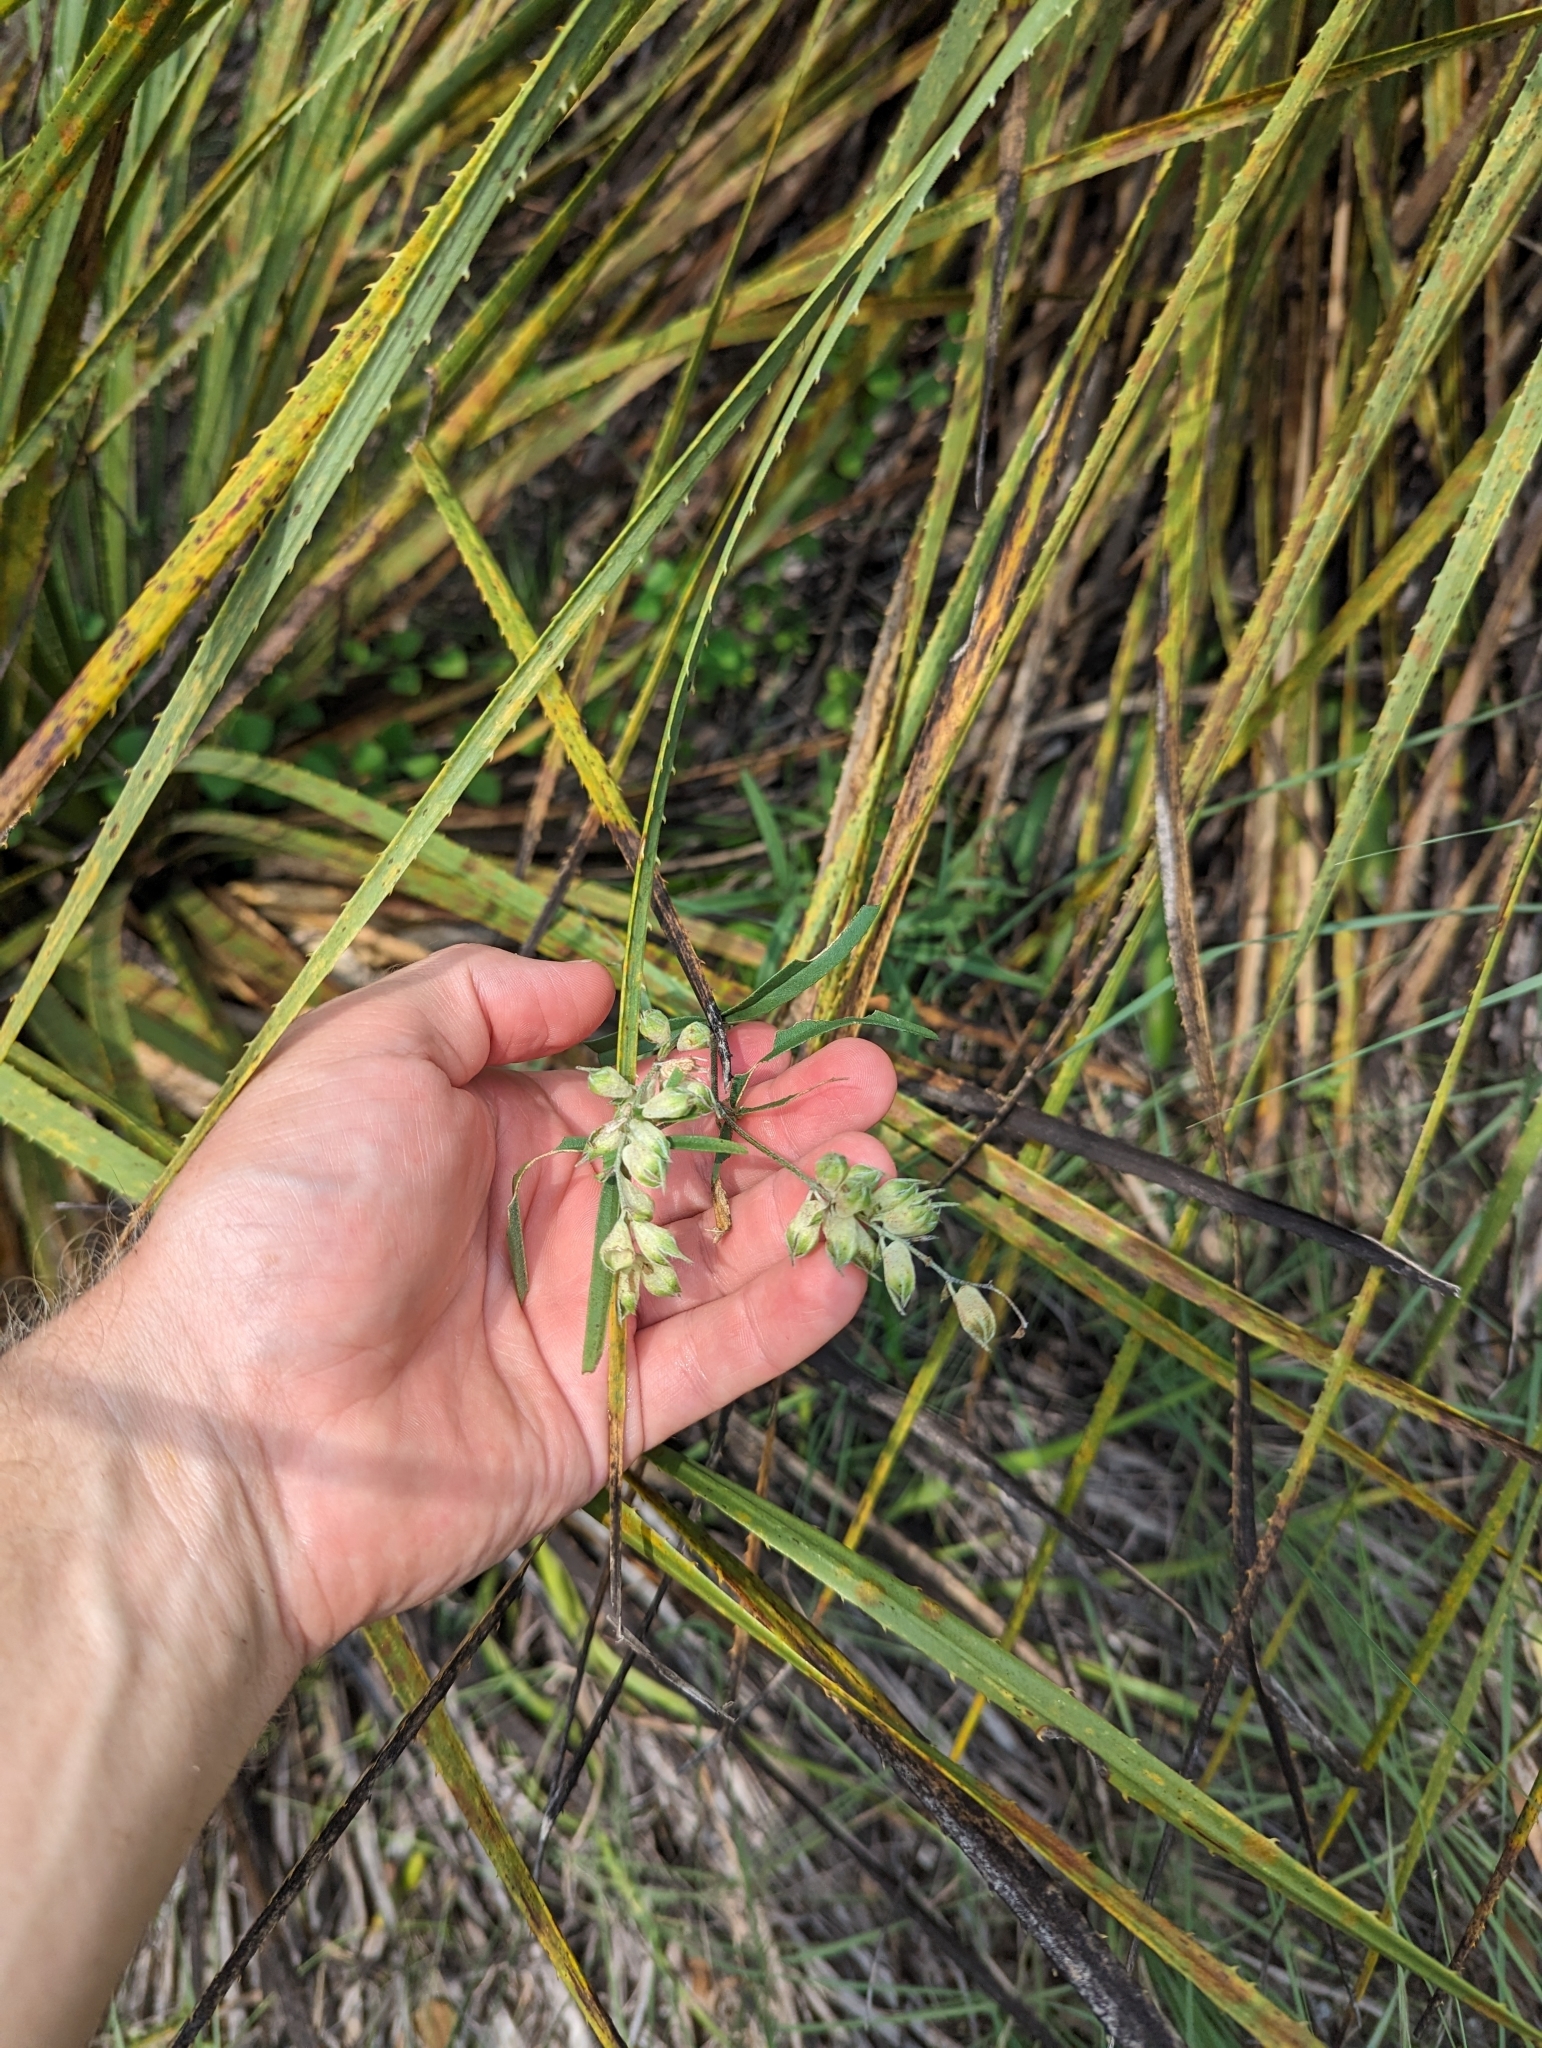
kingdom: Plantae
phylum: Tracheophyta
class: Magnoliopsida
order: Fabales
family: Fabaceae
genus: Pediomelum
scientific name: Pediomelum cyphocalyx
